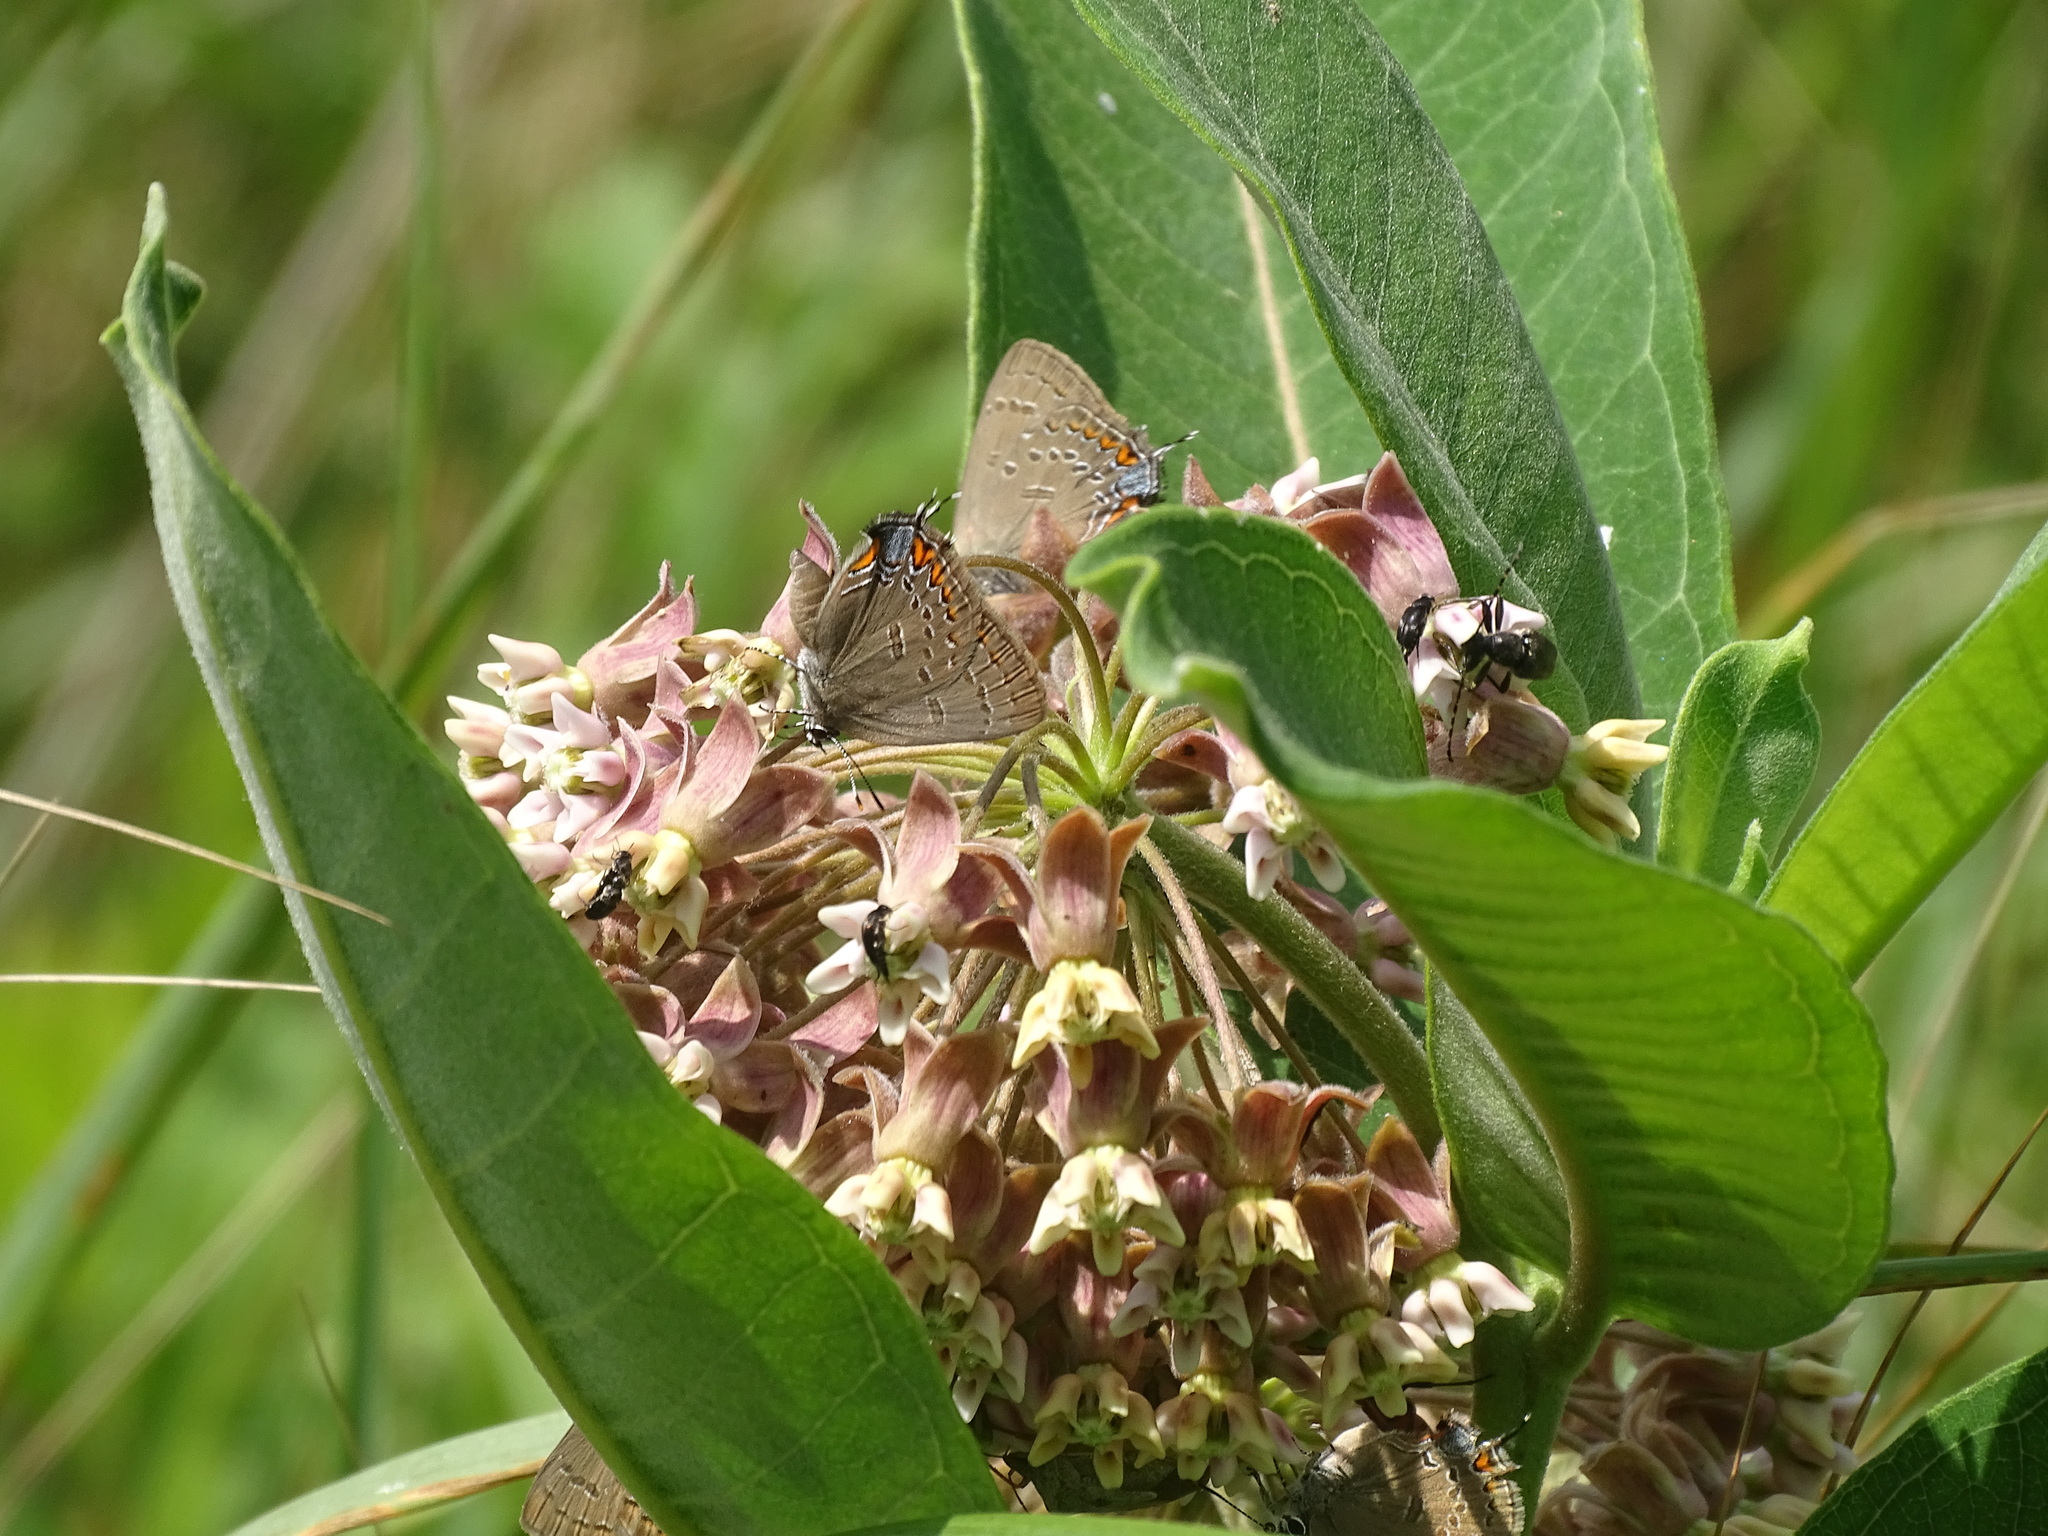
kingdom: Animalia
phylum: Arthropoda
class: Insecta
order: Lepidoptera
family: Lycaenidae
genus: Satyrium
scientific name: Satyrium edwardsii
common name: Edwards' hairstreak
